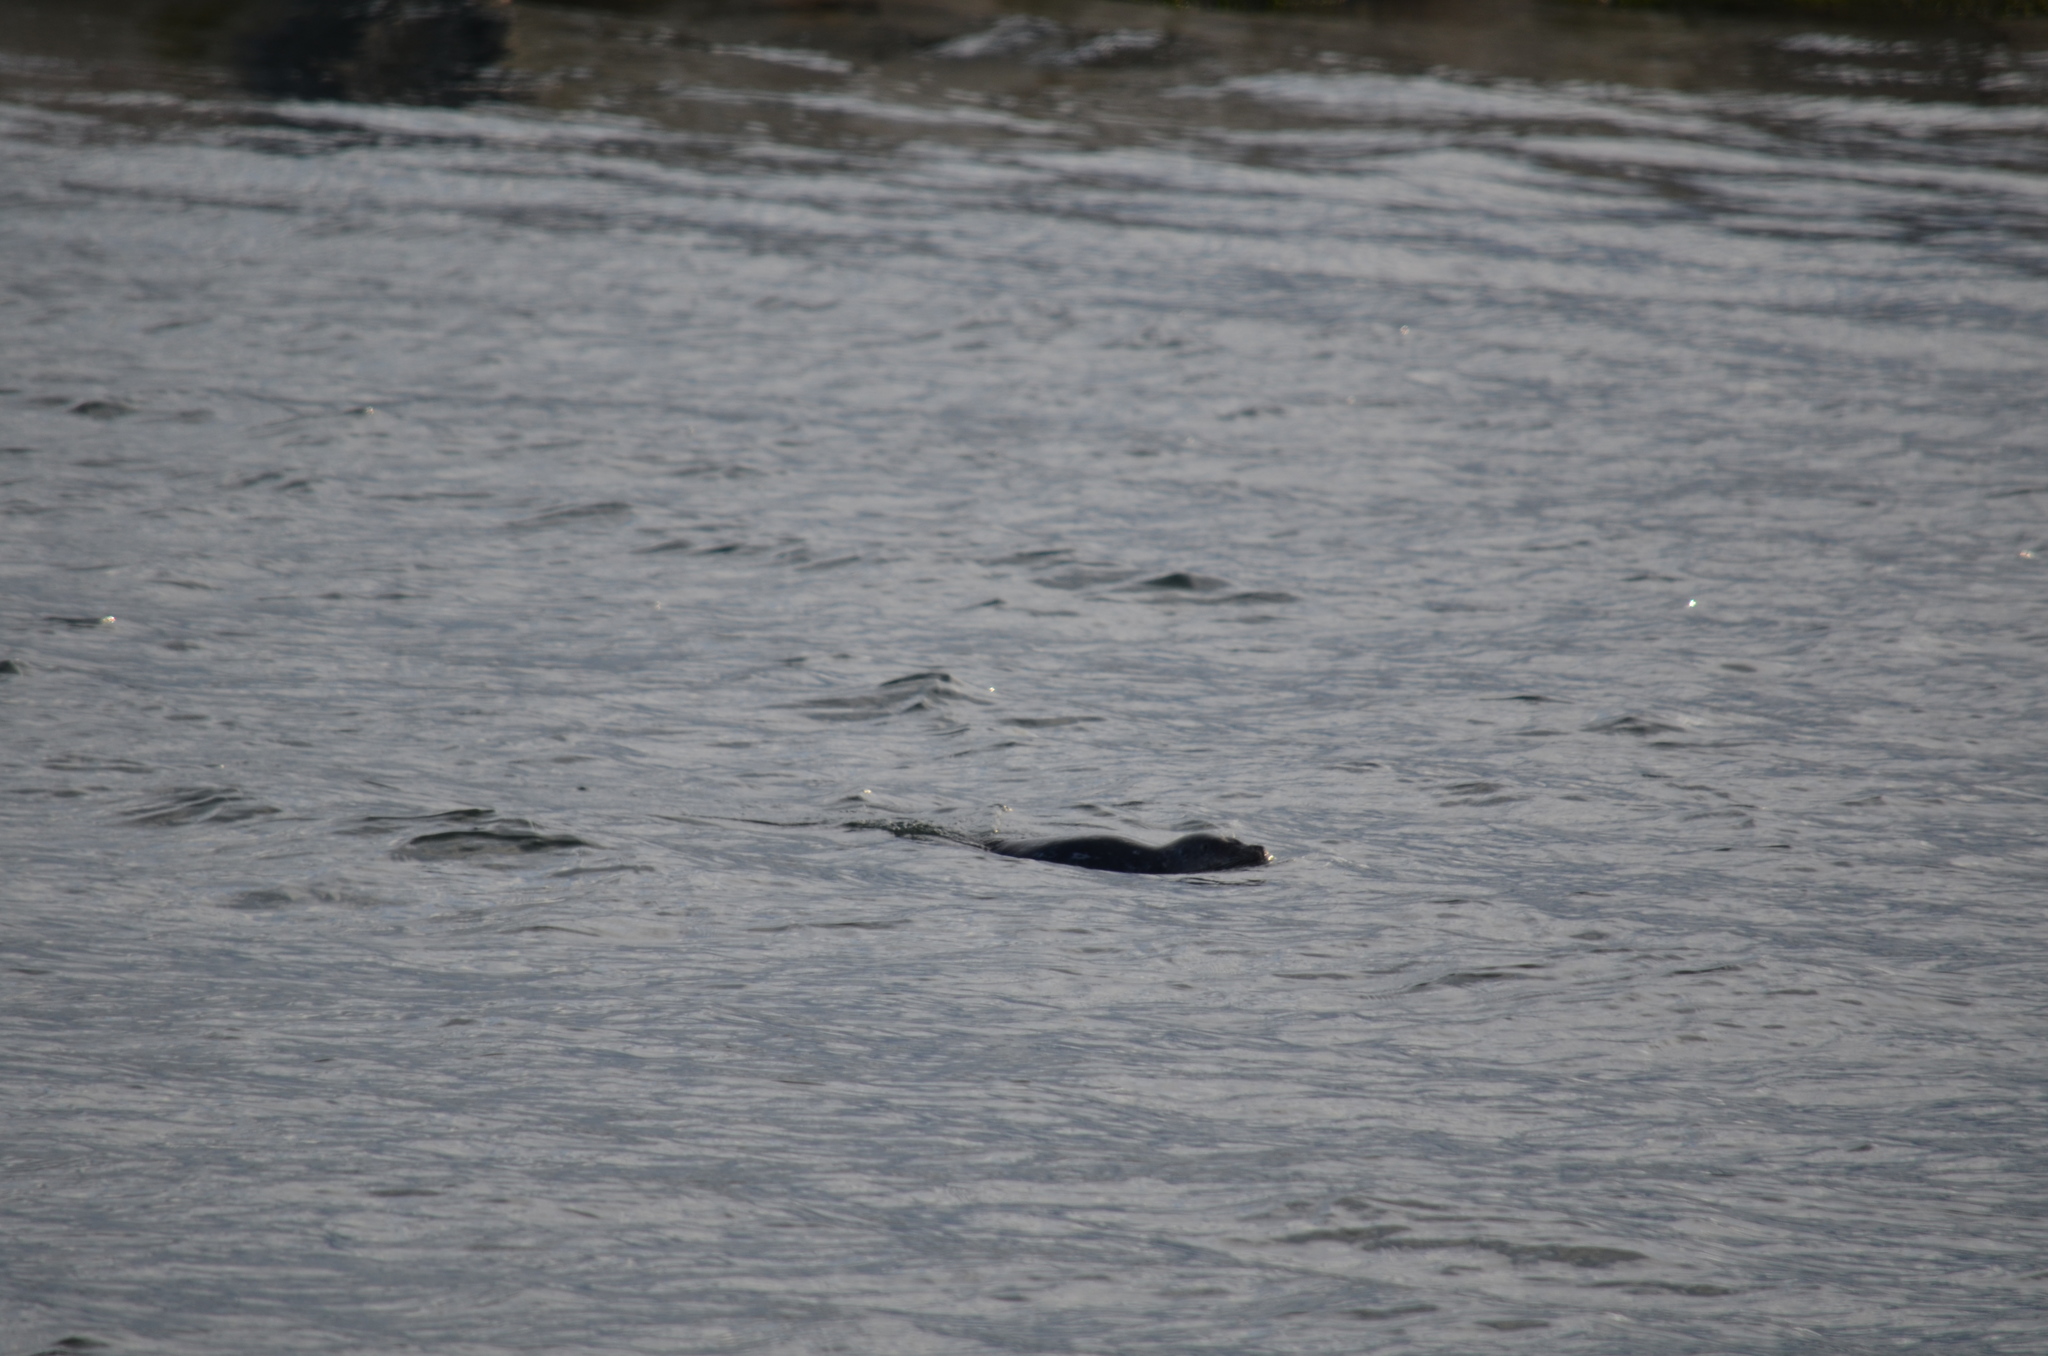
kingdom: Animalia
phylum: Chordata
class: Mammalia
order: Carnivora
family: Phocidae
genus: Phoca
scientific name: Phoca vitulina
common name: Harbor seal
